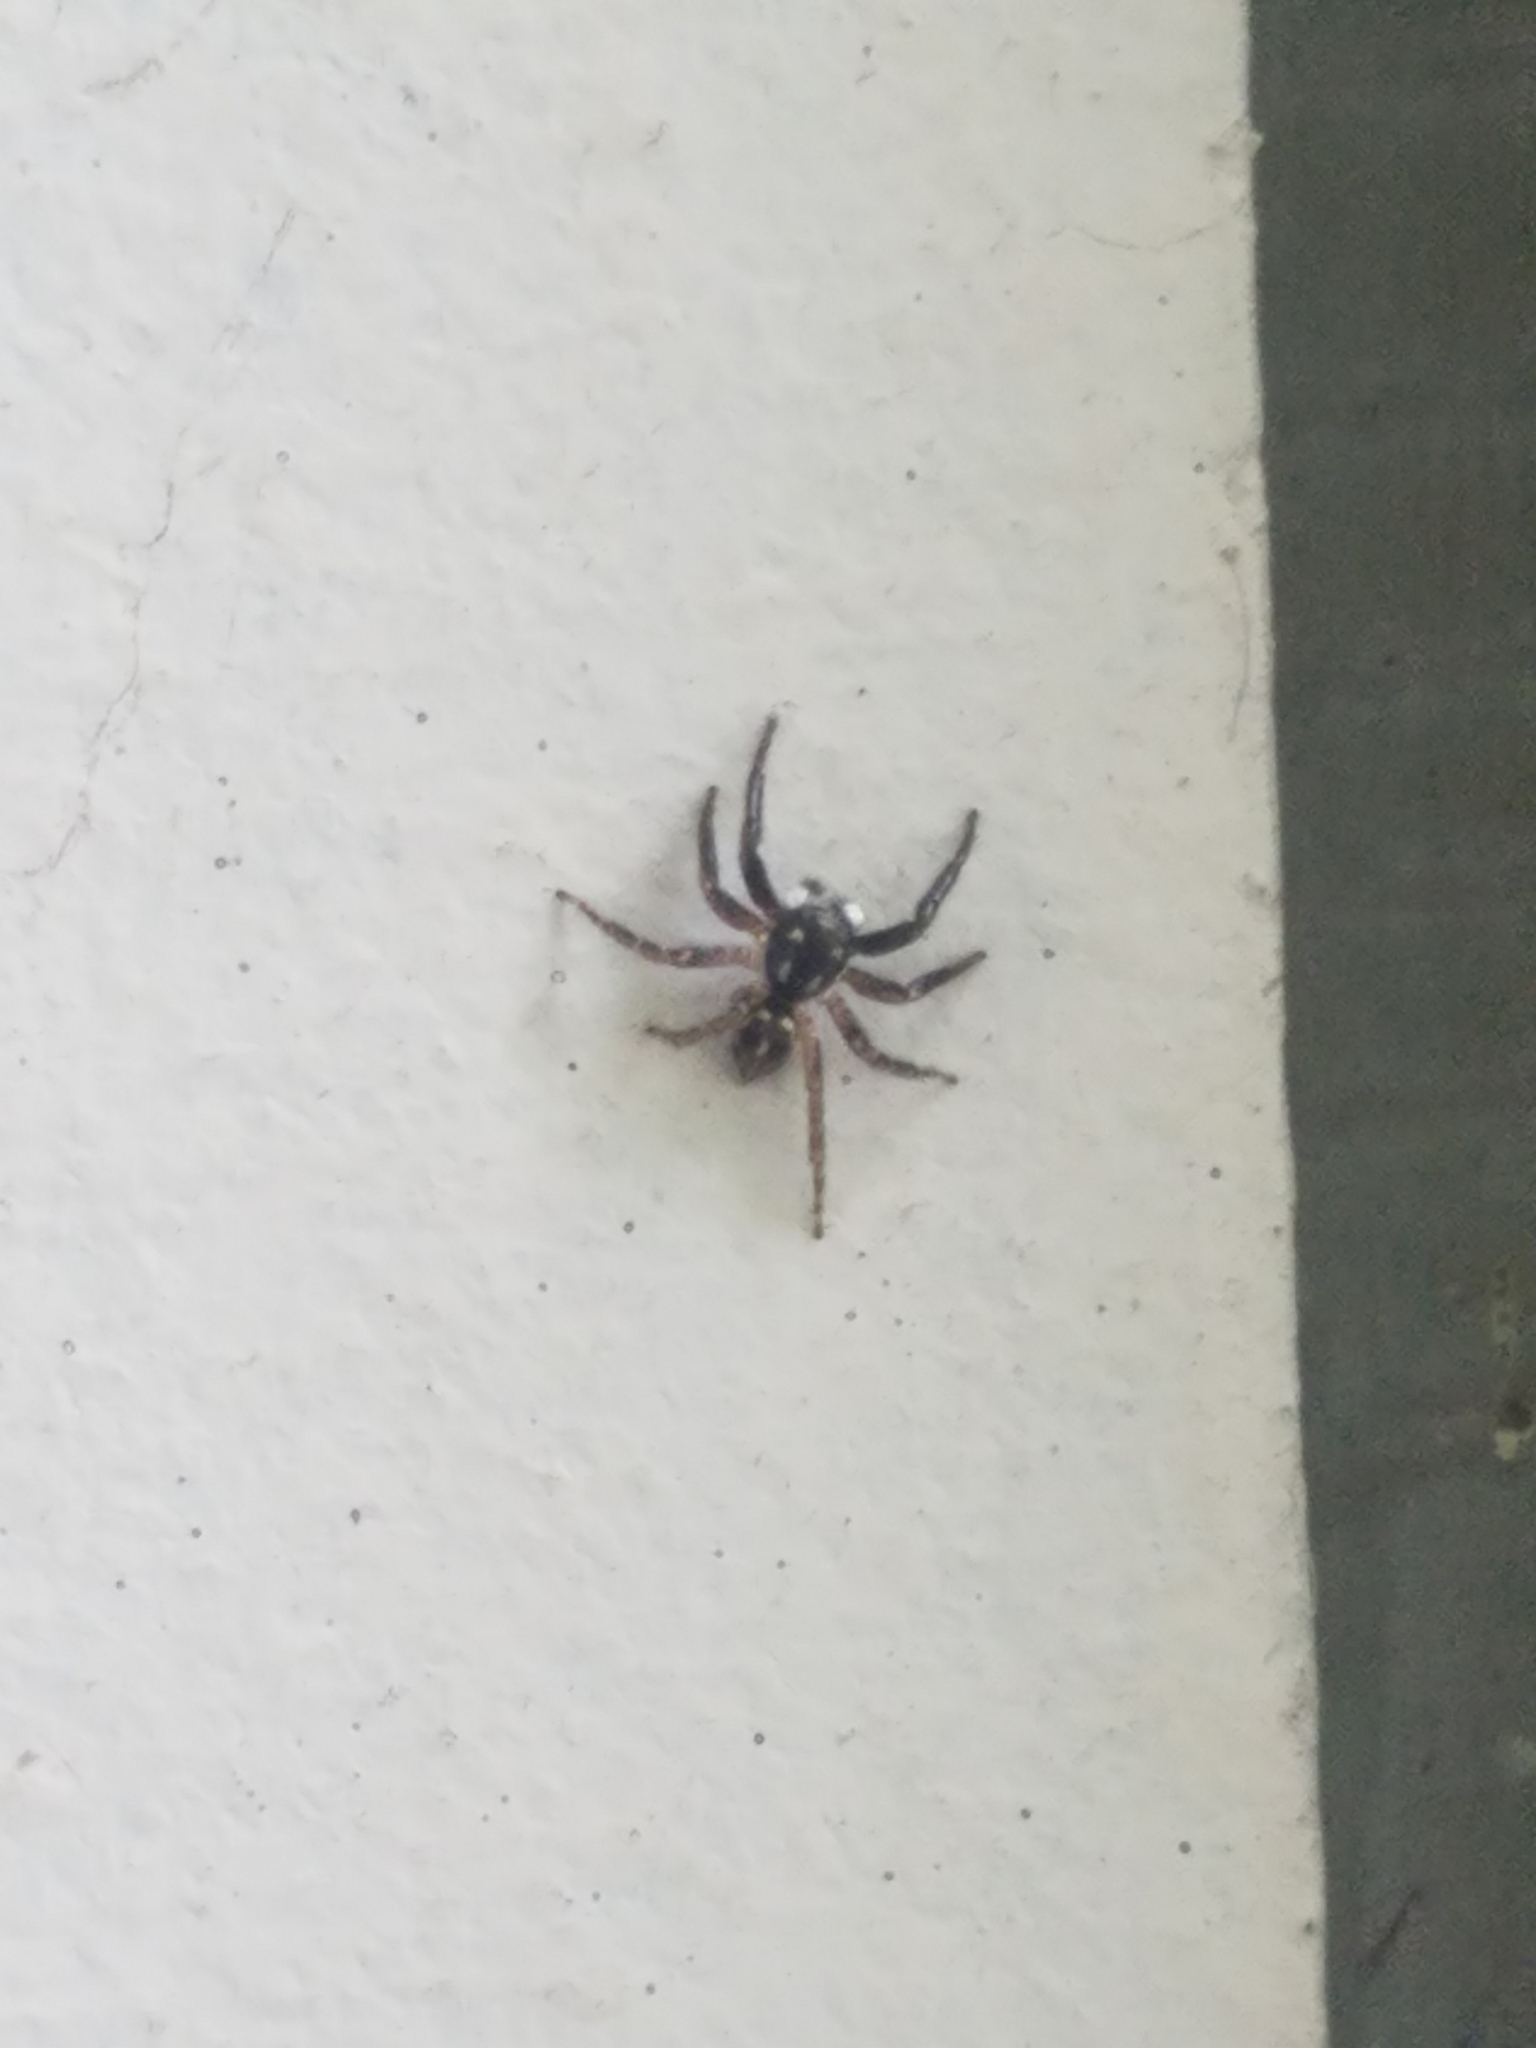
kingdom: Animalia
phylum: Arthropoda
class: Arachnida
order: Araneae
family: Salticidae
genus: Anasaitis
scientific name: Anasaitis canosa
